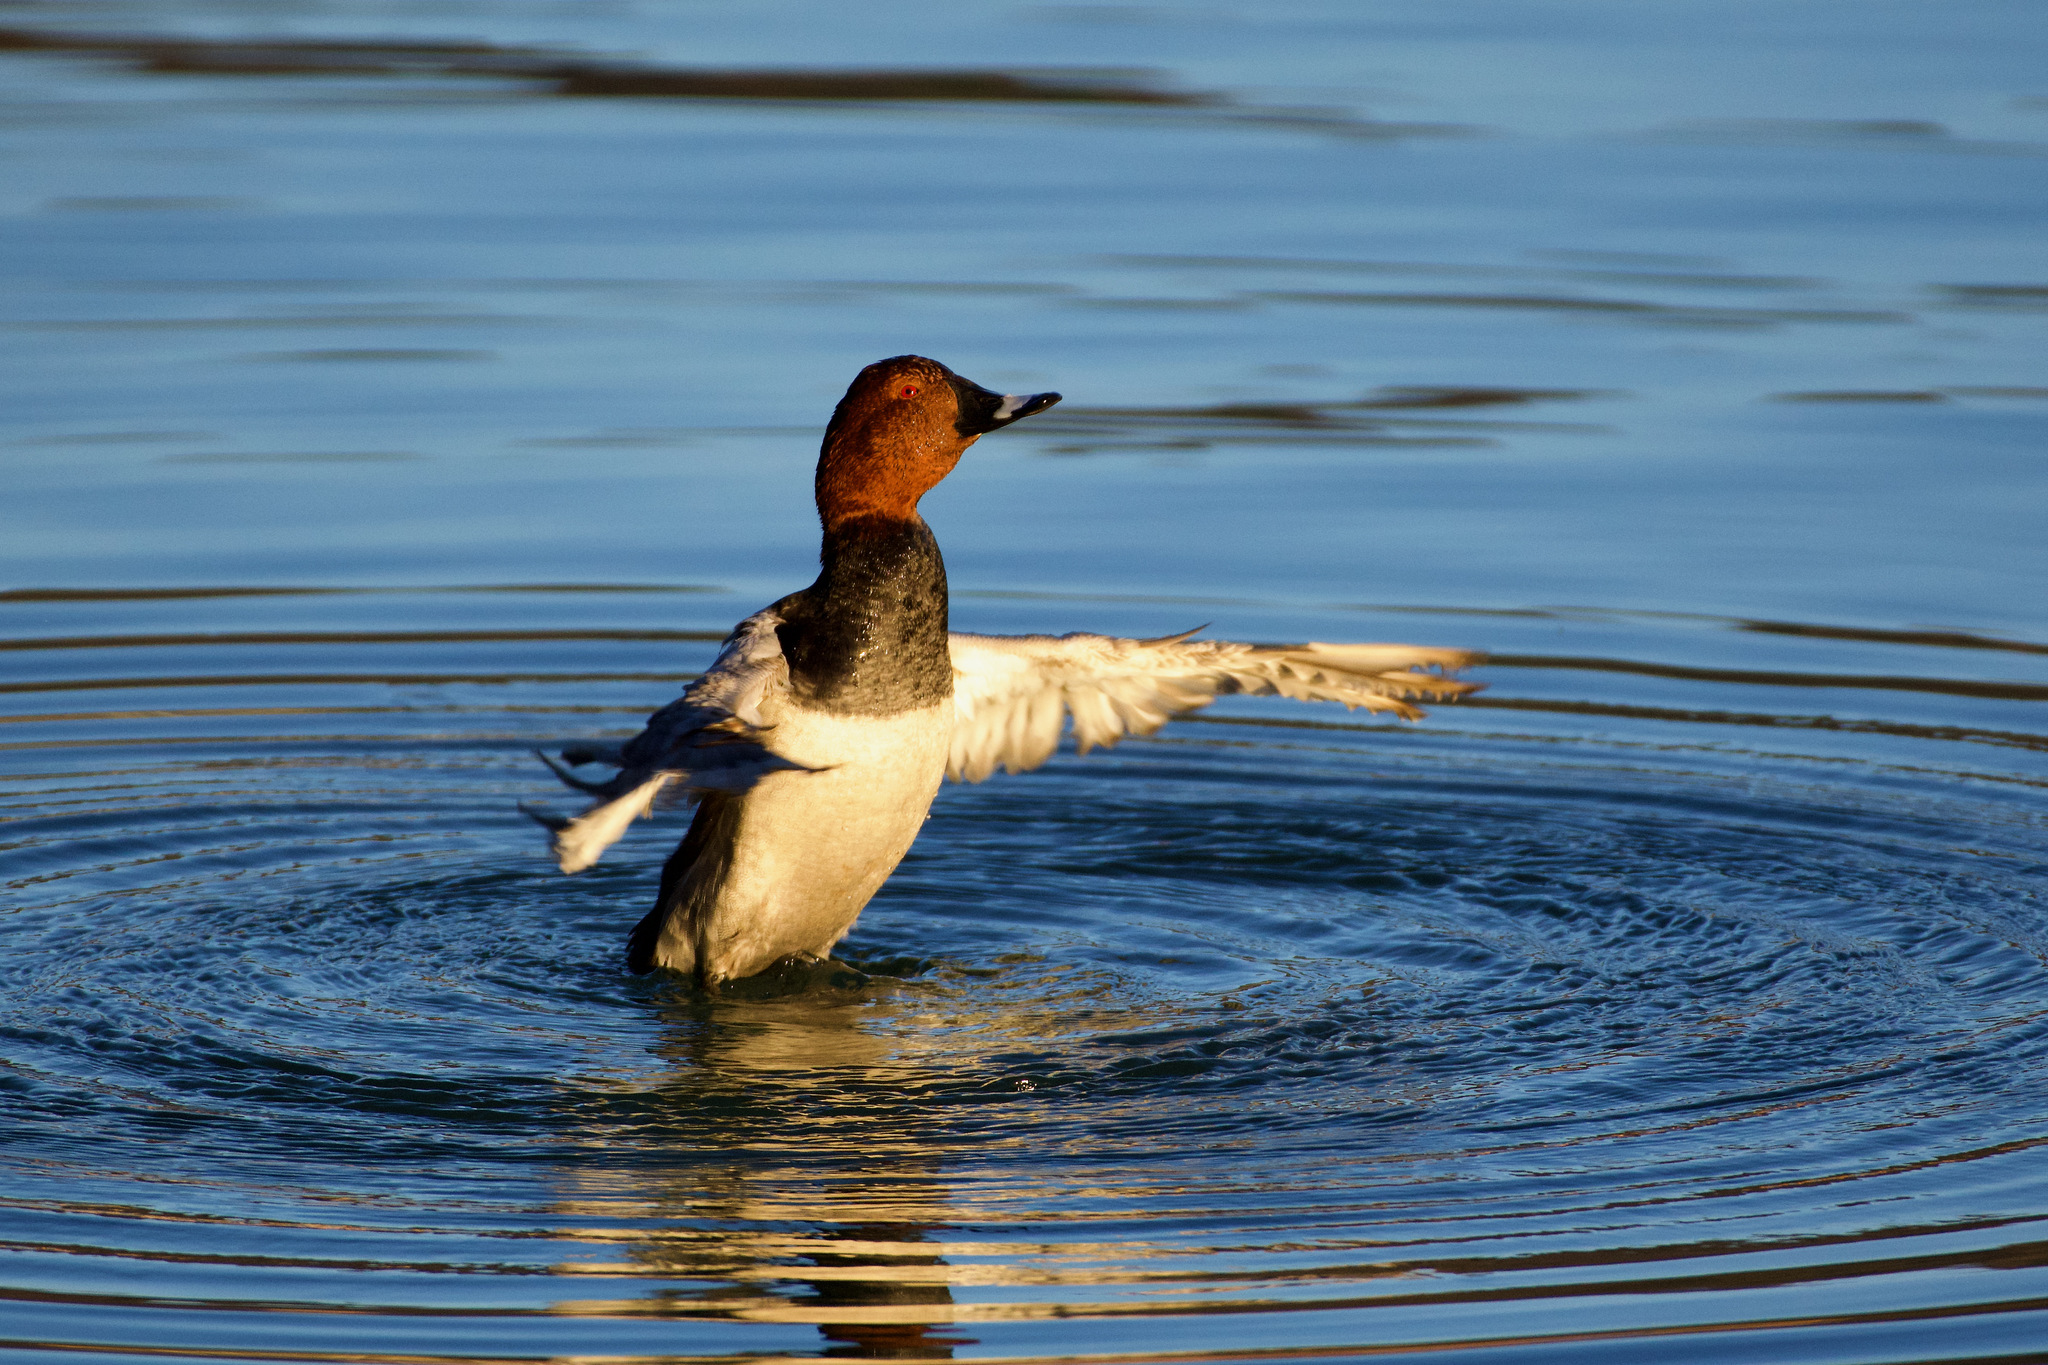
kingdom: Animalia
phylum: Chordata
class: Aves
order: Anseriformes
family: Anatidae
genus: Aythya
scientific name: Aythya ferina
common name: Common pochard
